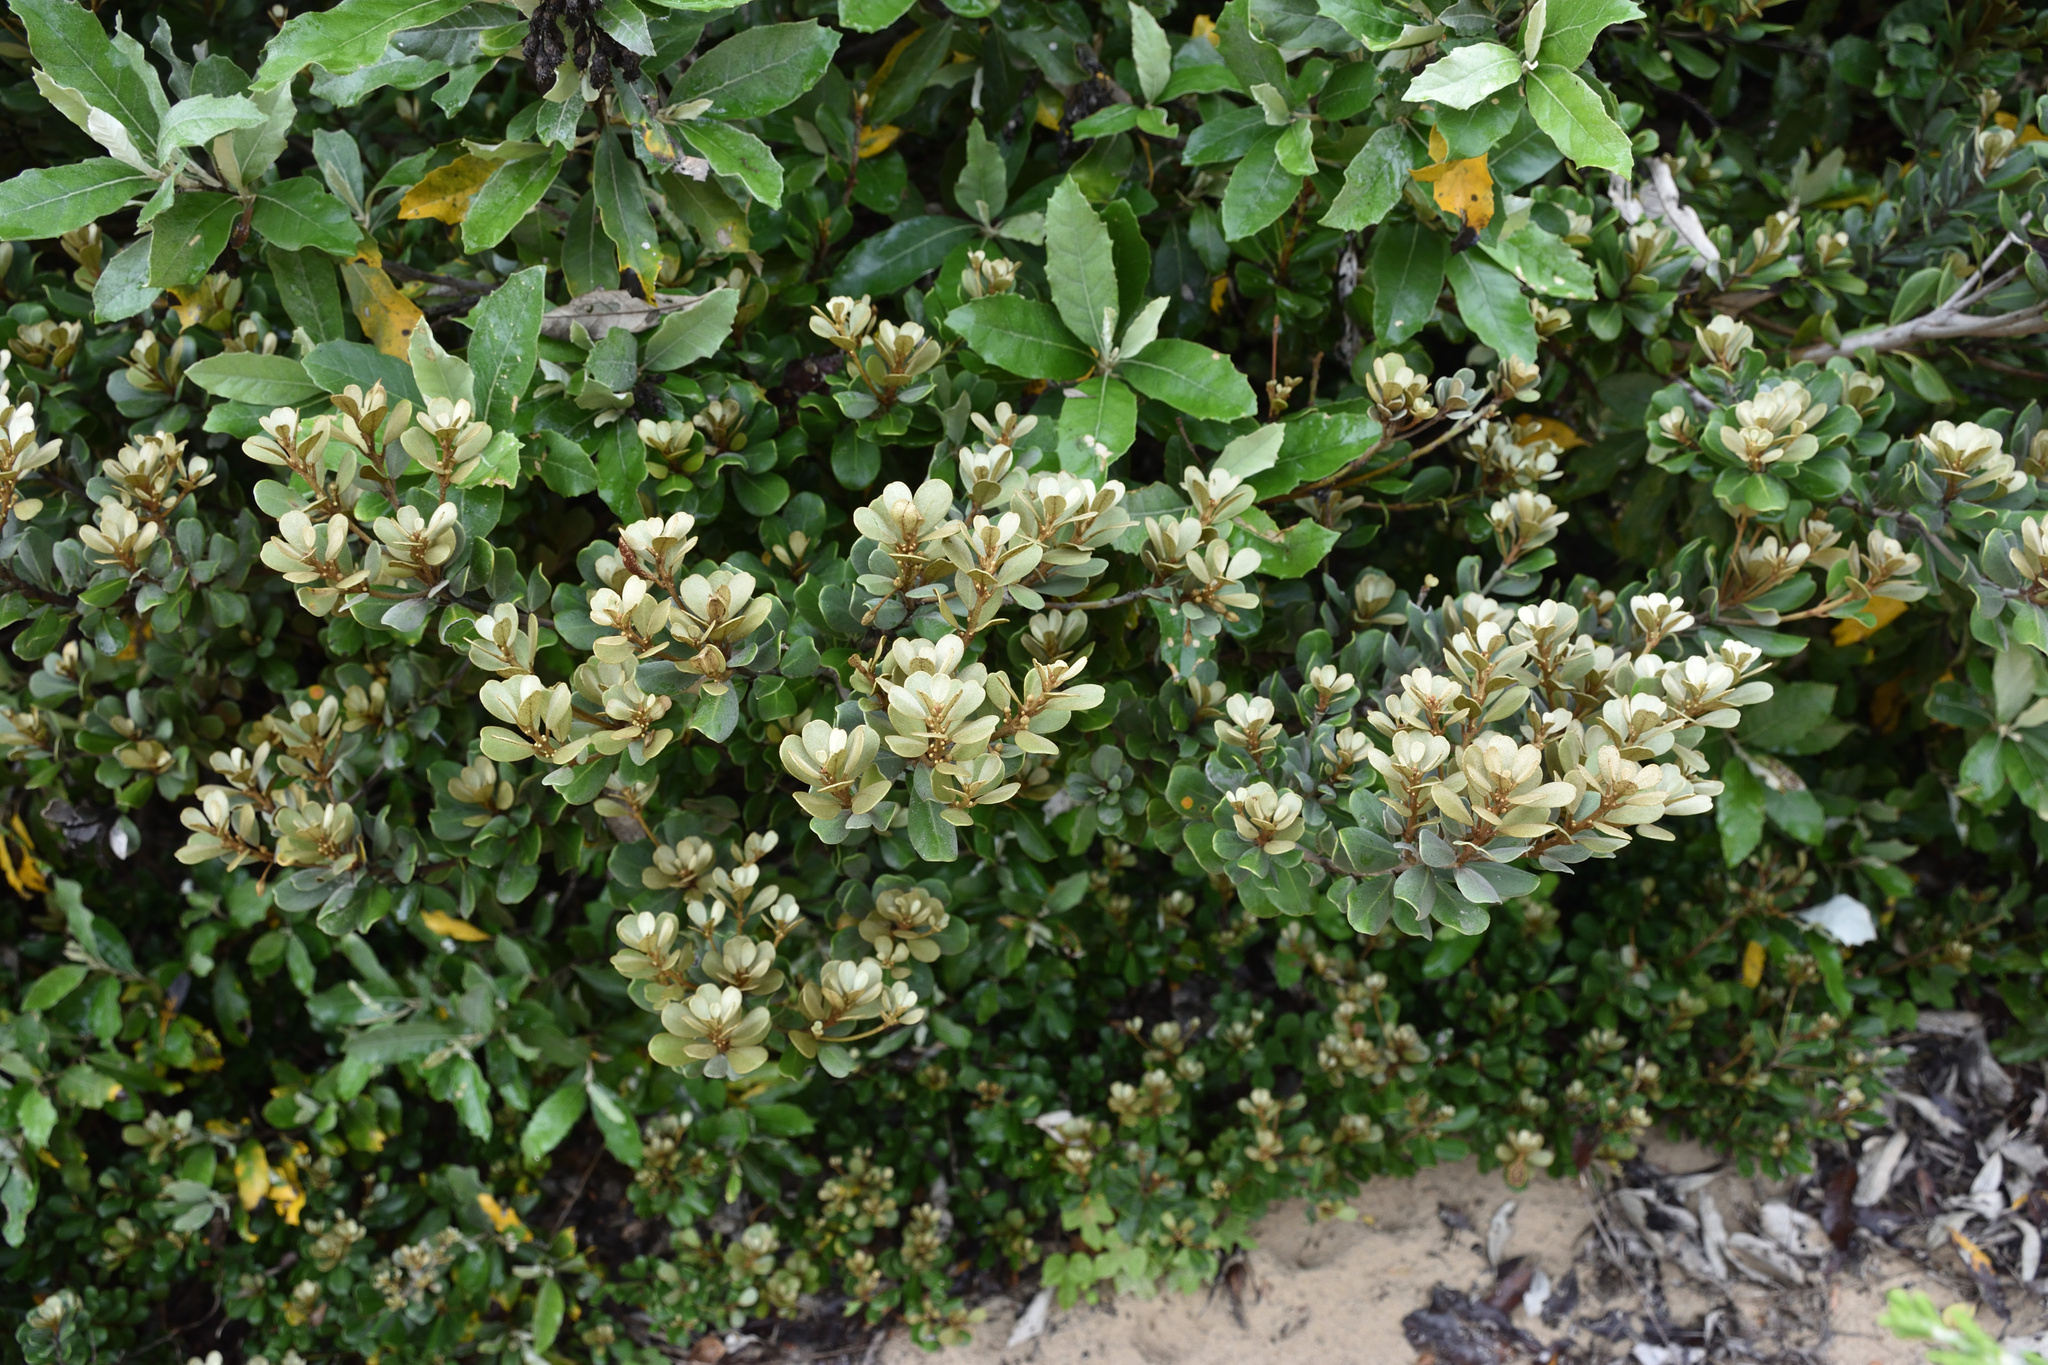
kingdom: Plantae
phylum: Tracheophyta
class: Magnoliopsida
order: Ericales
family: Sapotaceae
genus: Mimusops
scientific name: Mimusops caffra
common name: Coastal red milkwood
